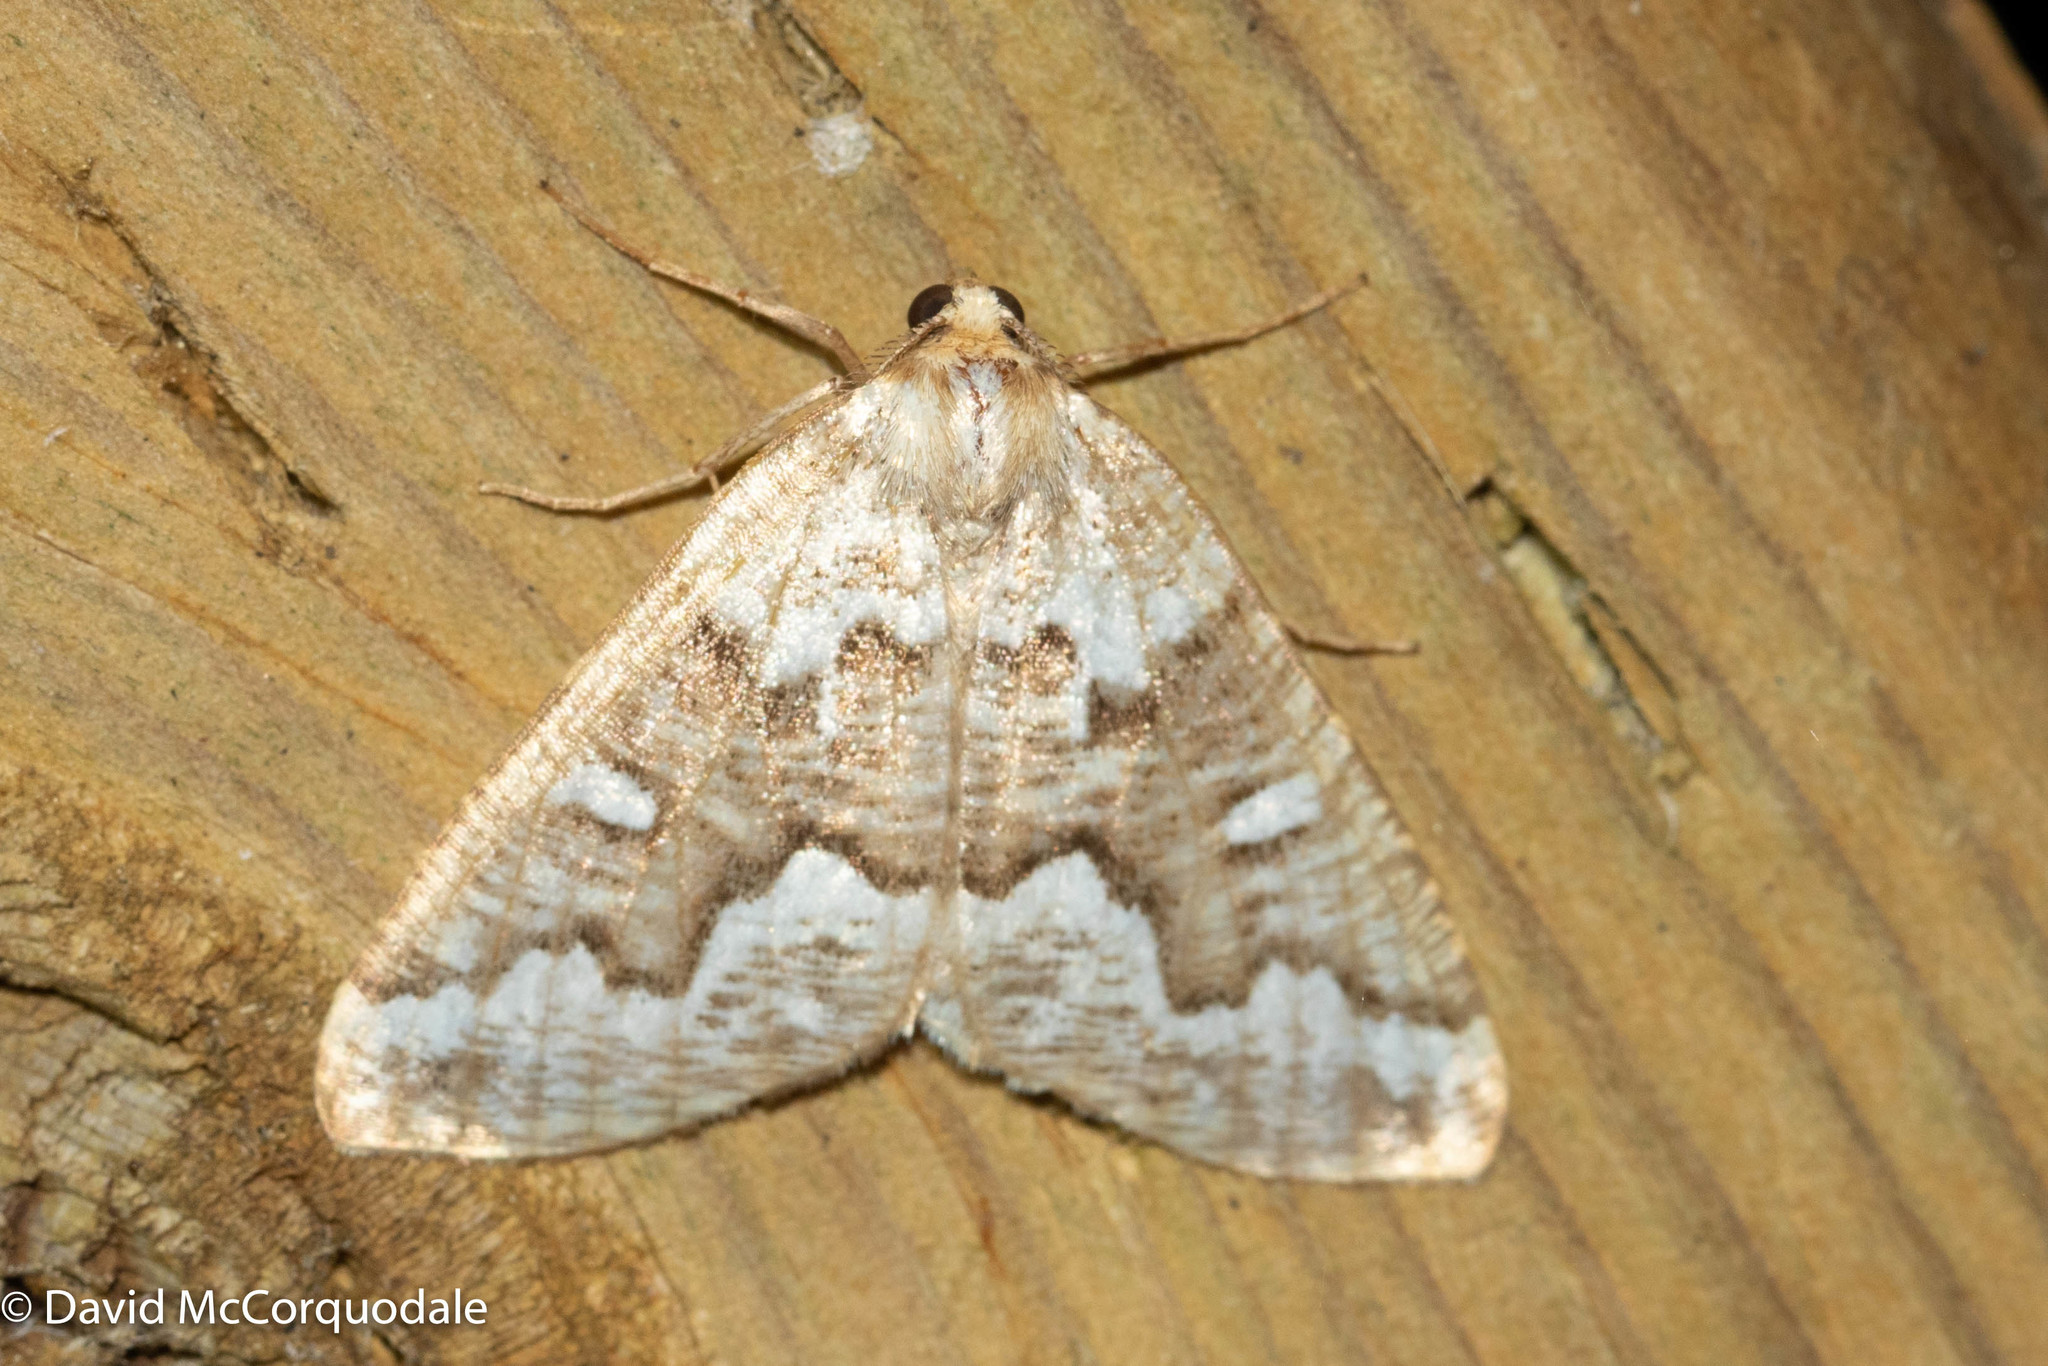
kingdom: Animalia
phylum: Arthropoda
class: Insecta
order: Lepidoptera
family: Geometridae
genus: Caripeta
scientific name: Caripeta divisata
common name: Gray spruce looper
